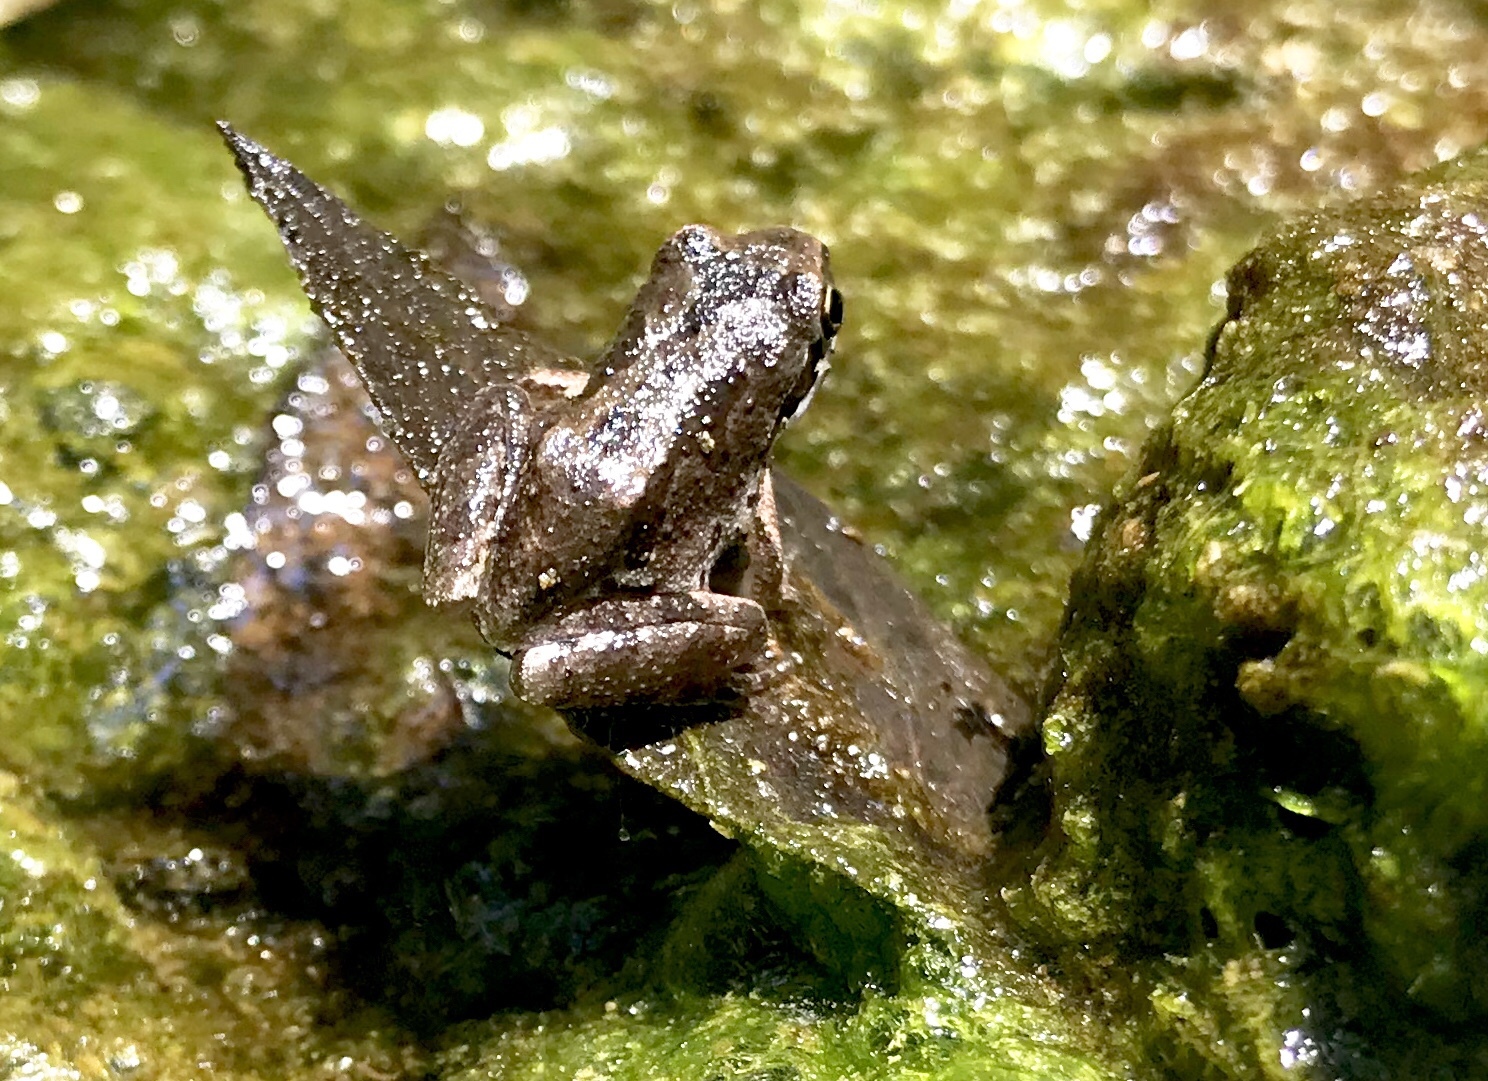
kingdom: Animalia
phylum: Chordata
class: Amphibia
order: Anura
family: Hylidae
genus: Pseudacris
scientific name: Pseudacris regilla
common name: Pacific chorus frog
